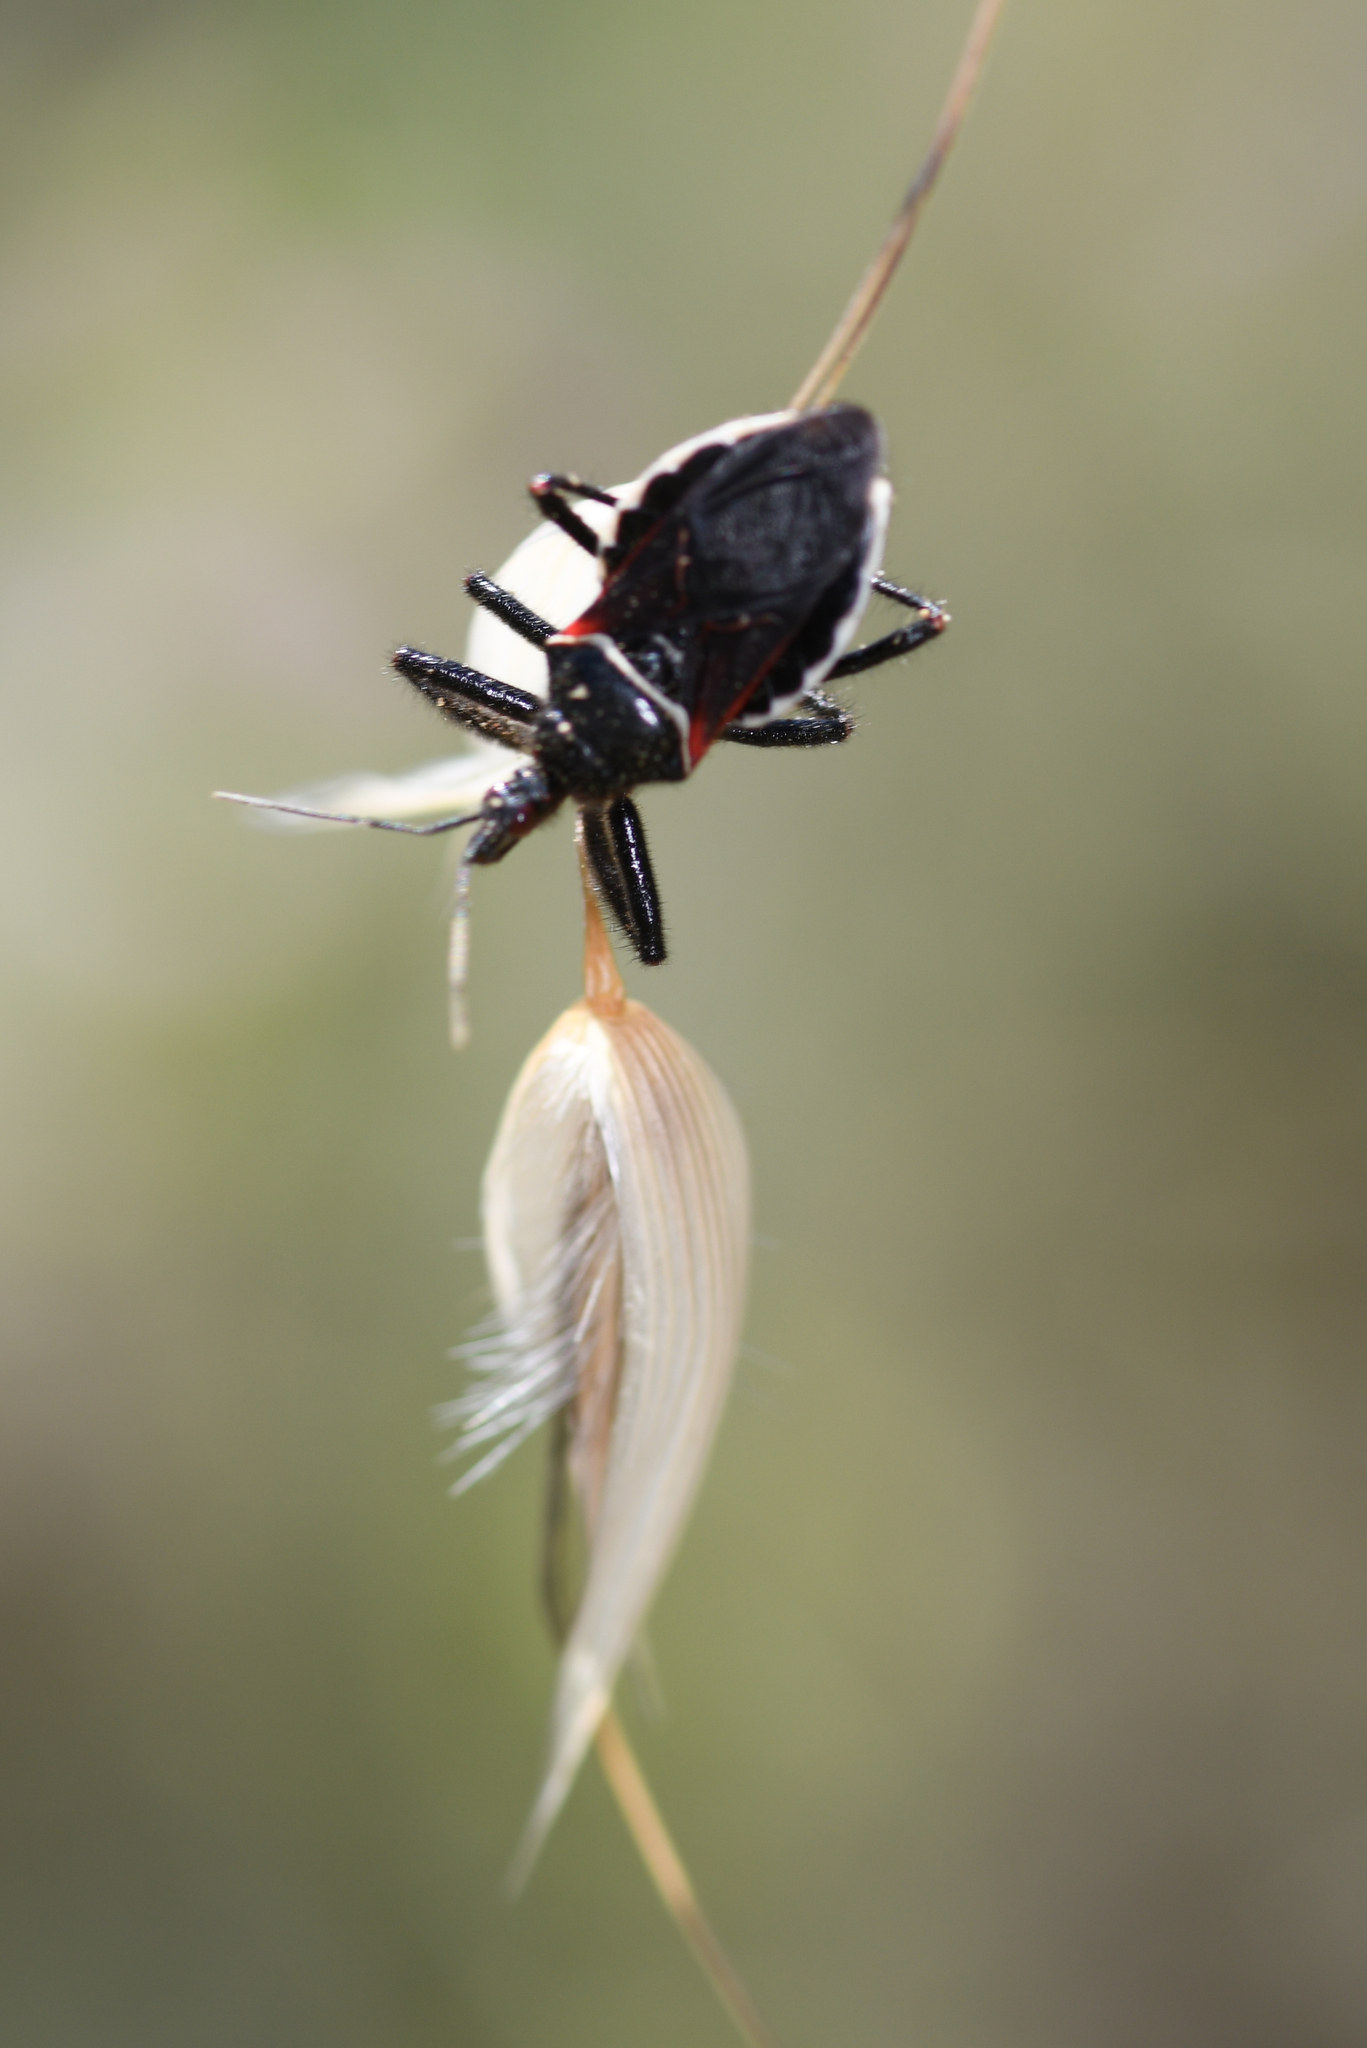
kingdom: Animalia
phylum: Arthropoda
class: Insecta
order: Hemiptera
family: Reduviidae
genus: Apiomerus
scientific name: Apiomerus californicus
